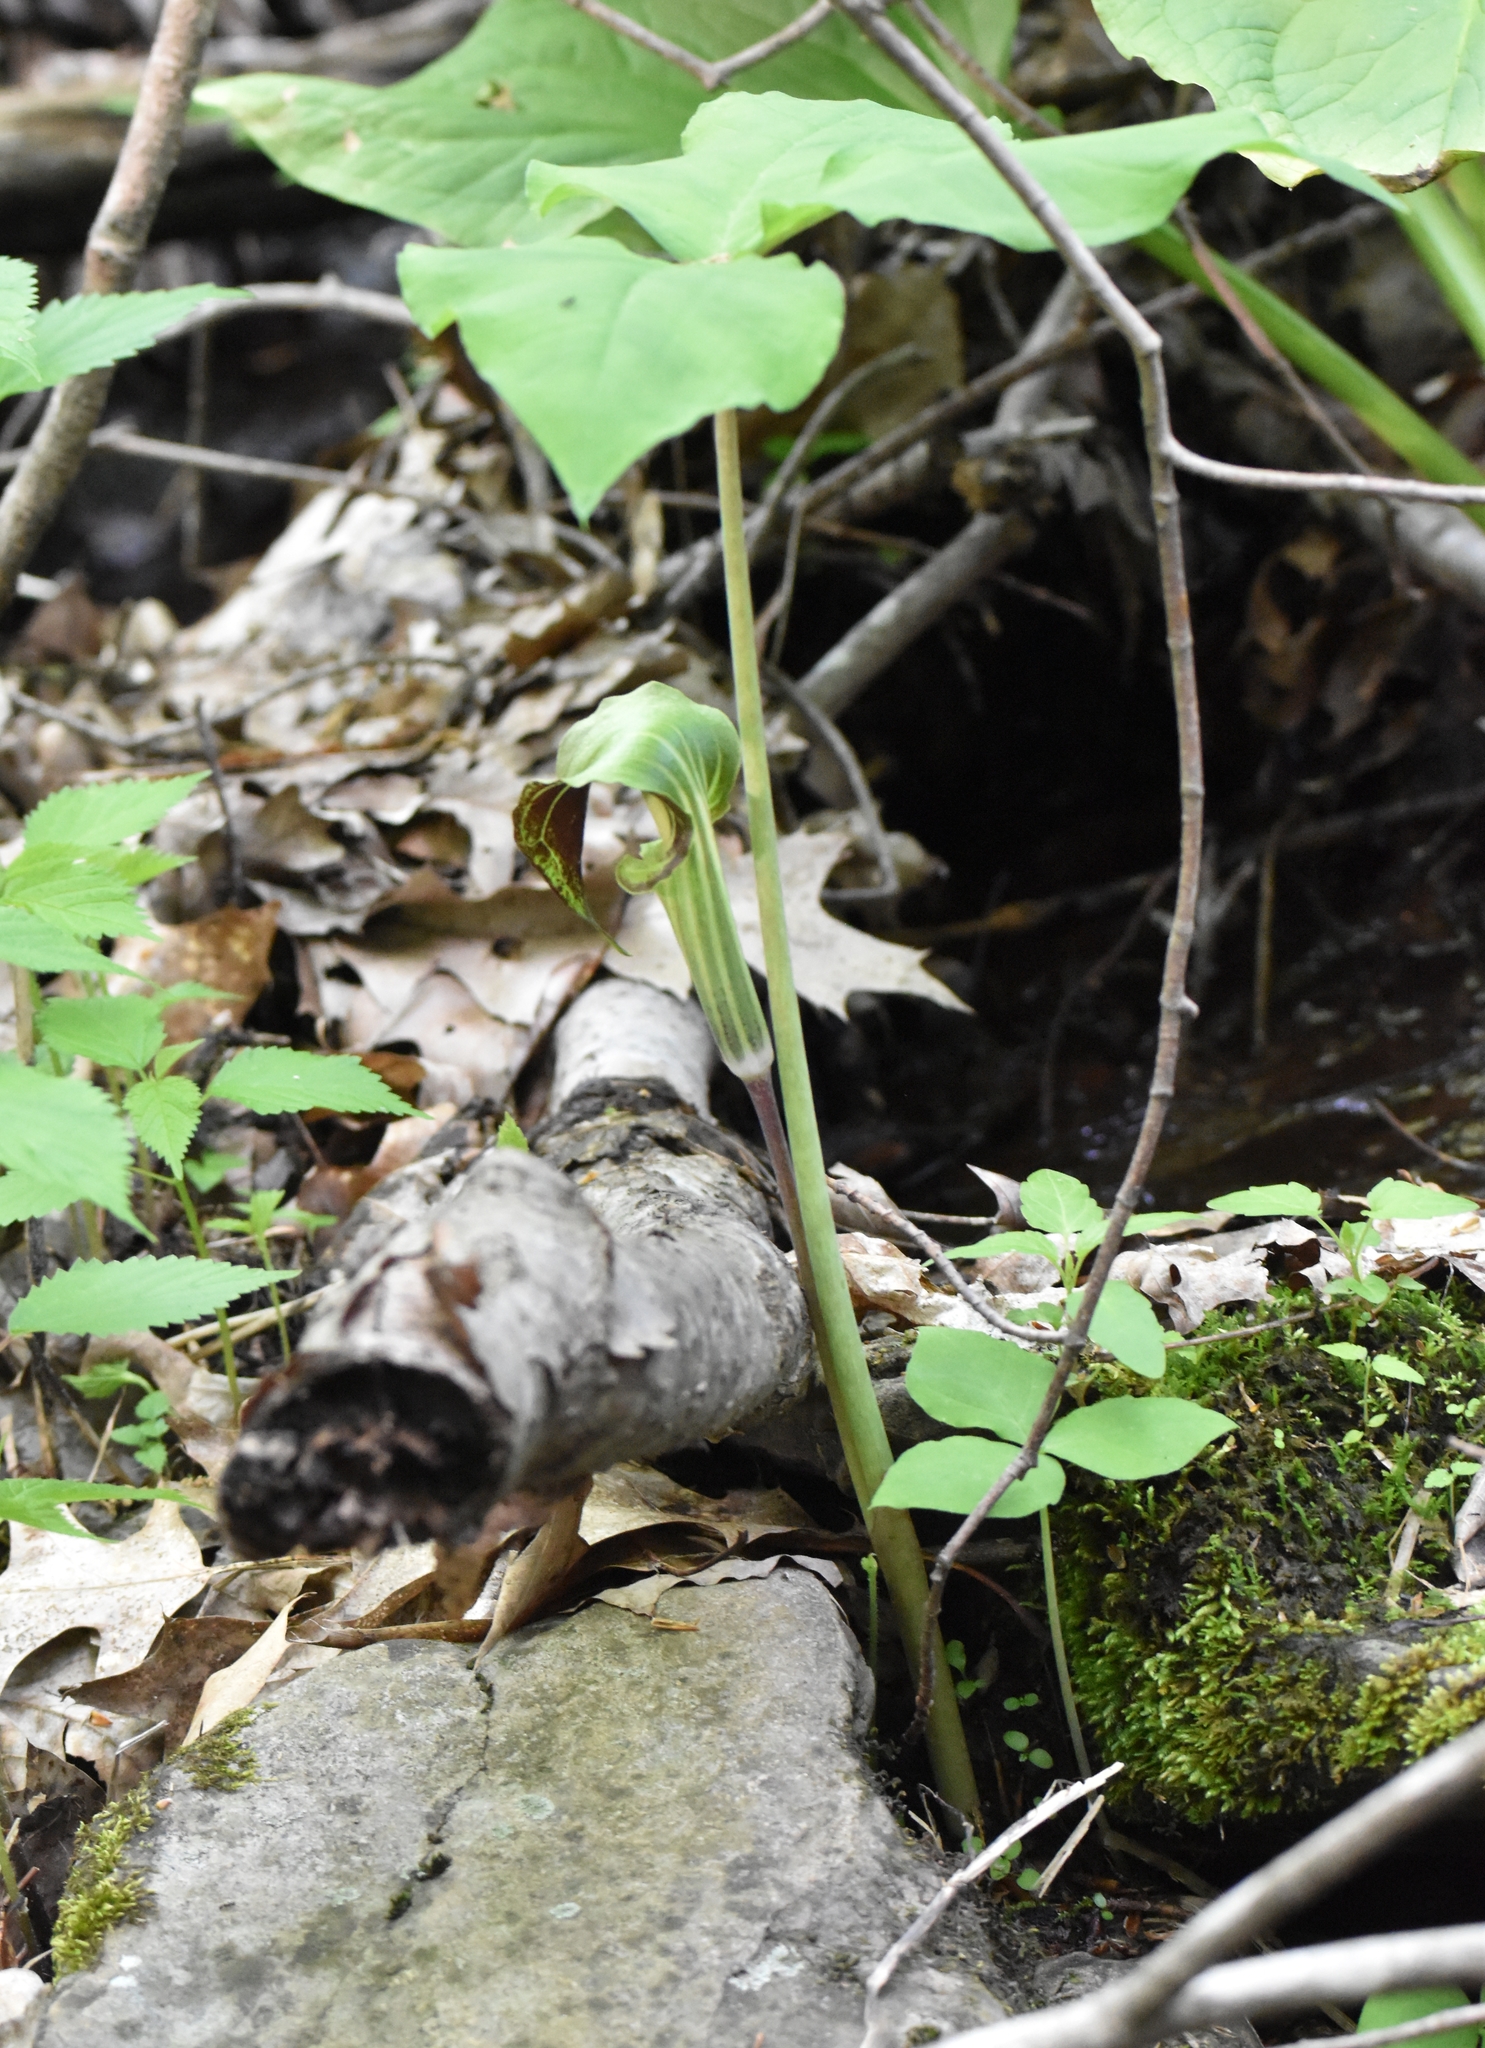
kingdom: Plantae
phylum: Tracheophyta
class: Liliopsida
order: Alismatales
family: Araceae
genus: Arisaema
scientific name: Arisaema triphyllum
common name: Jack-in-the-pulpit
